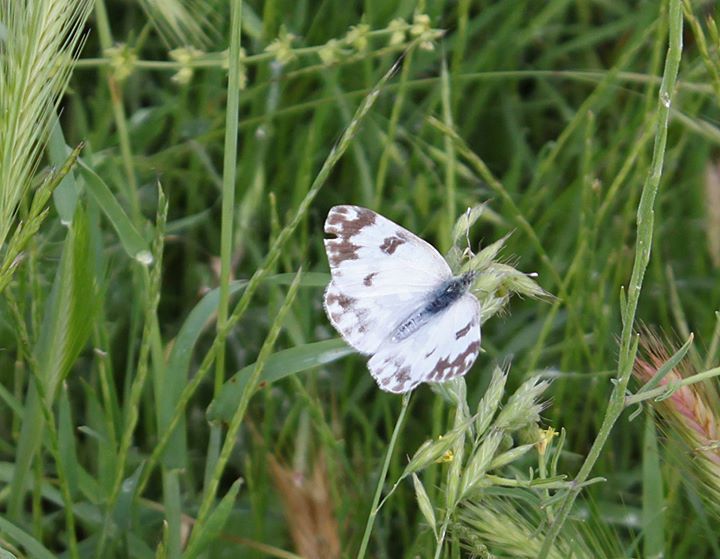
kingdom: Animalia
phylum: Arthropoda
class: Insecta
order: Lepidoptera
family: Pieridae
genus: Pontia
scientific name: Pontia edusa
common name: Eastern bath white
